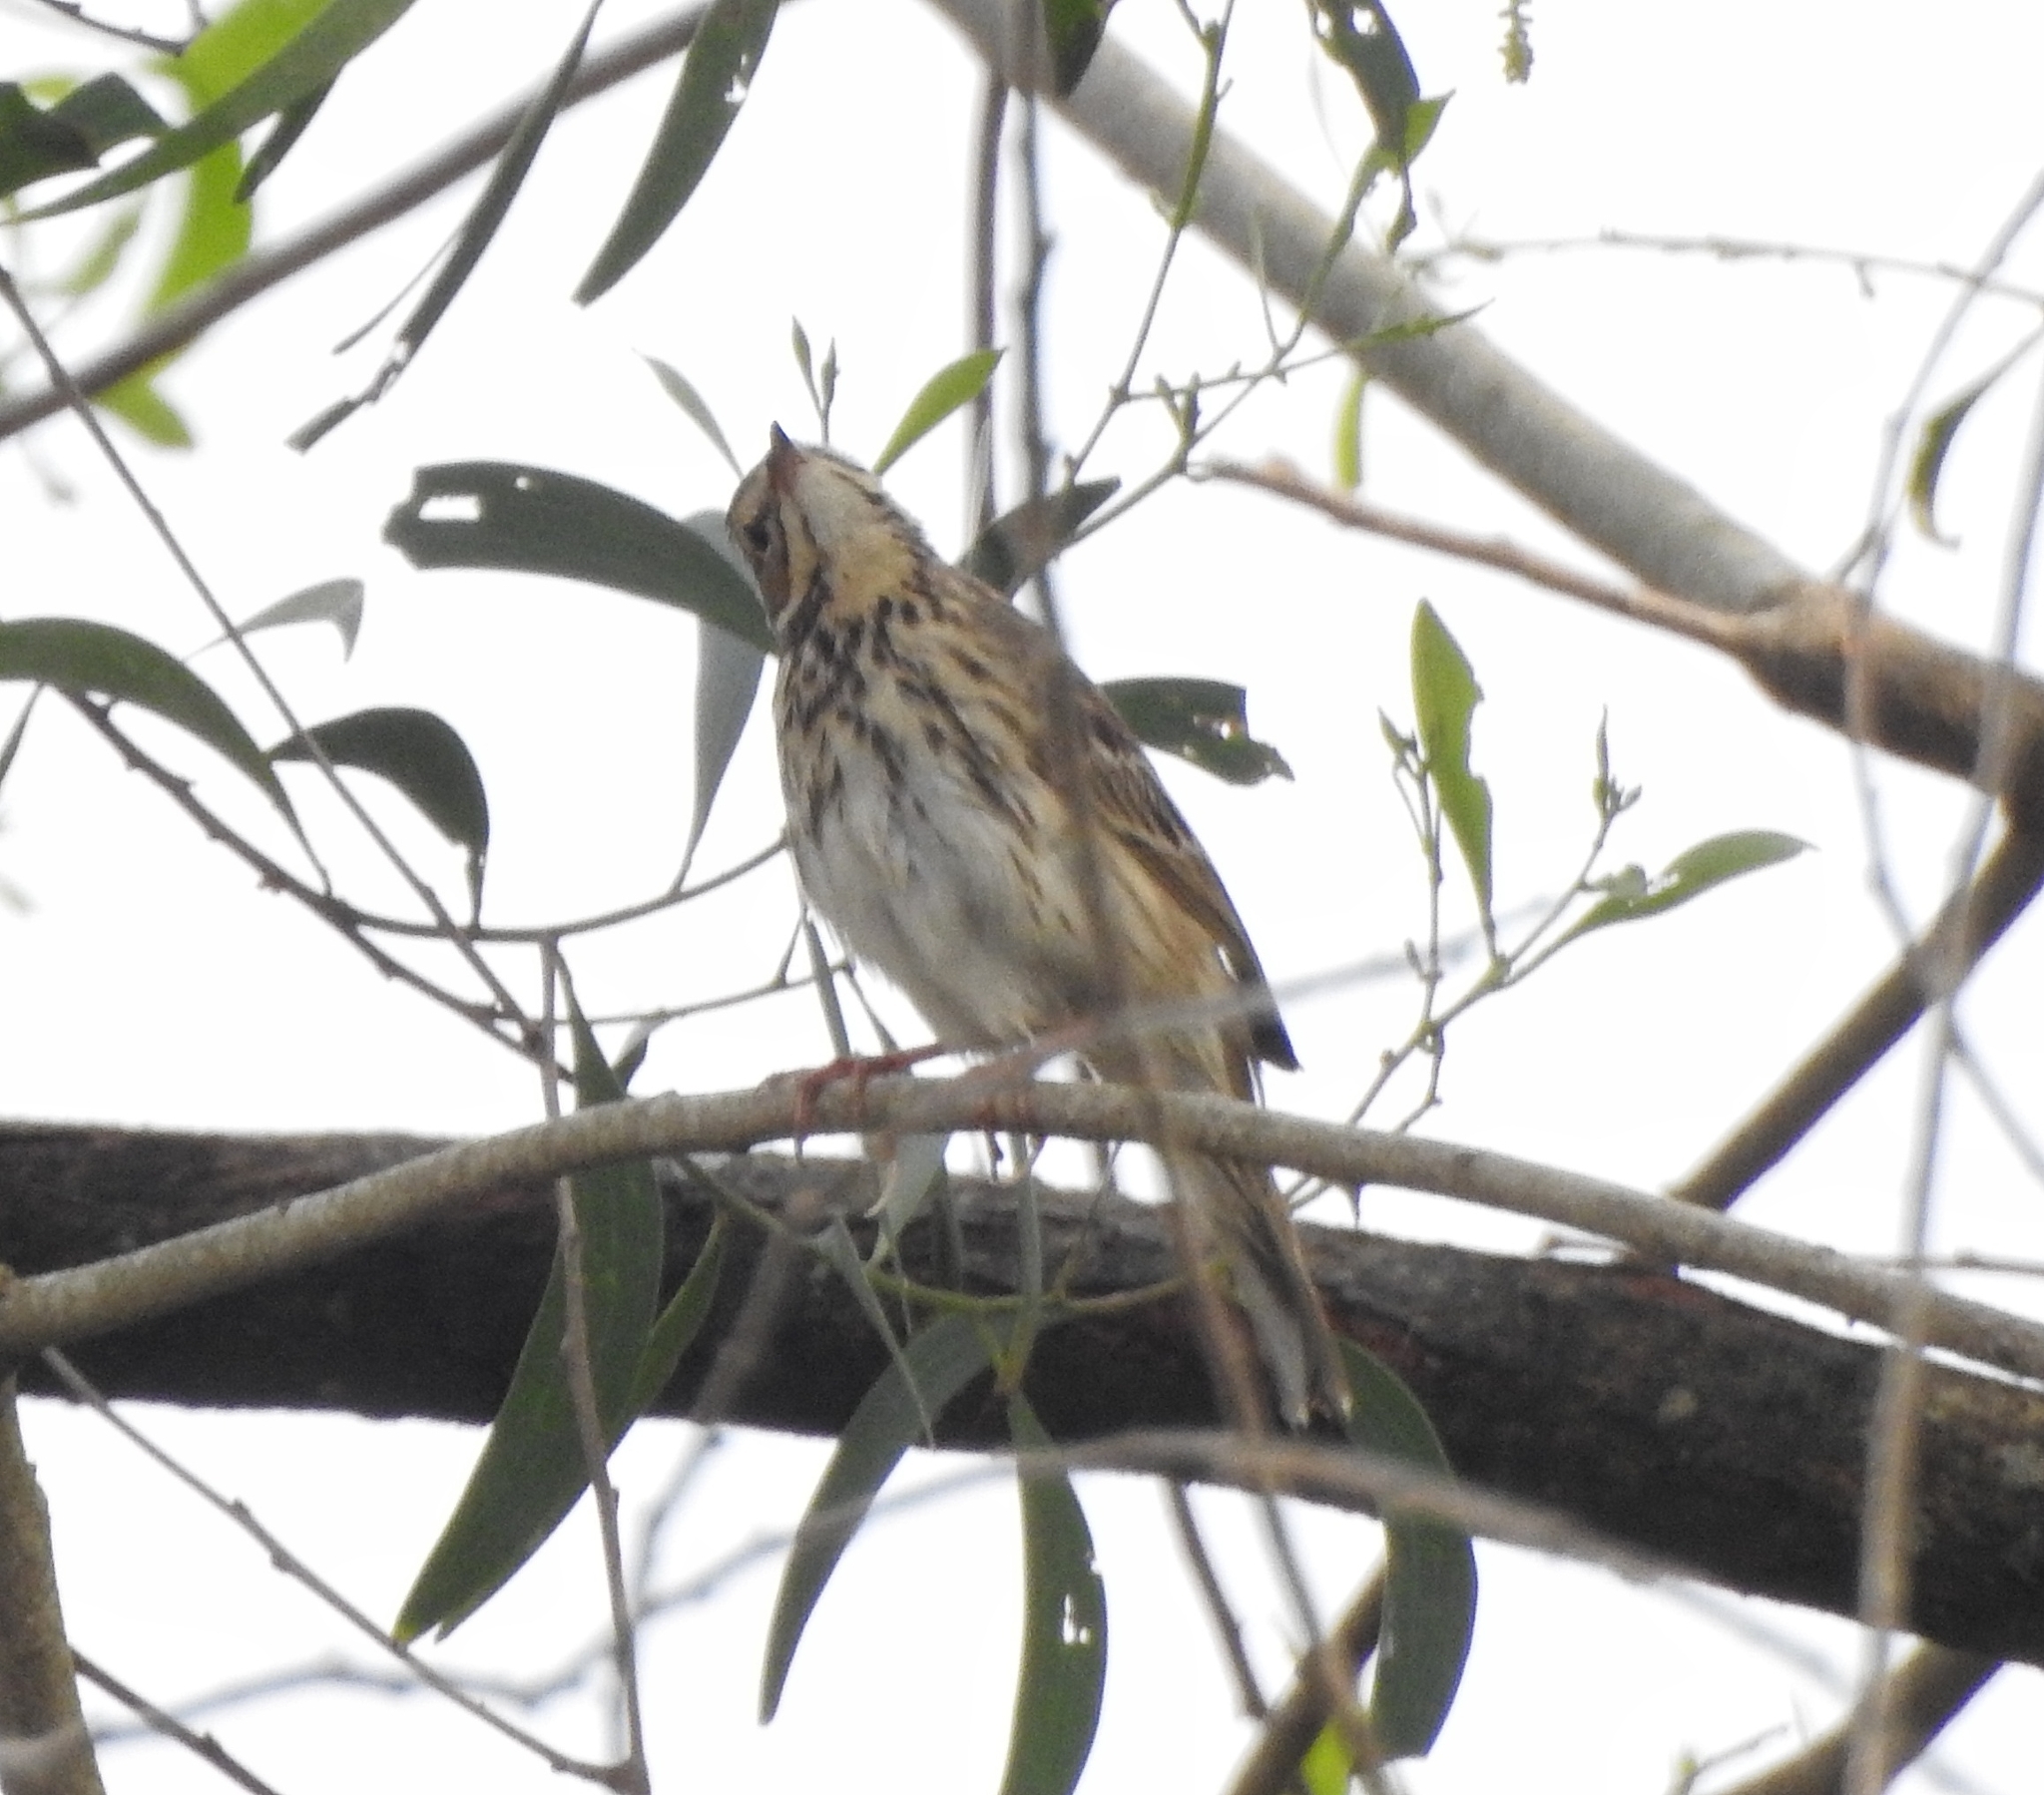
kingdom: Animalia
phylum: Chordata
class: Aves
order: Passeriformes
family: Motacillidae
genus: Anthus
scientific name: Anthus trivialis
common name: Tree pipit
